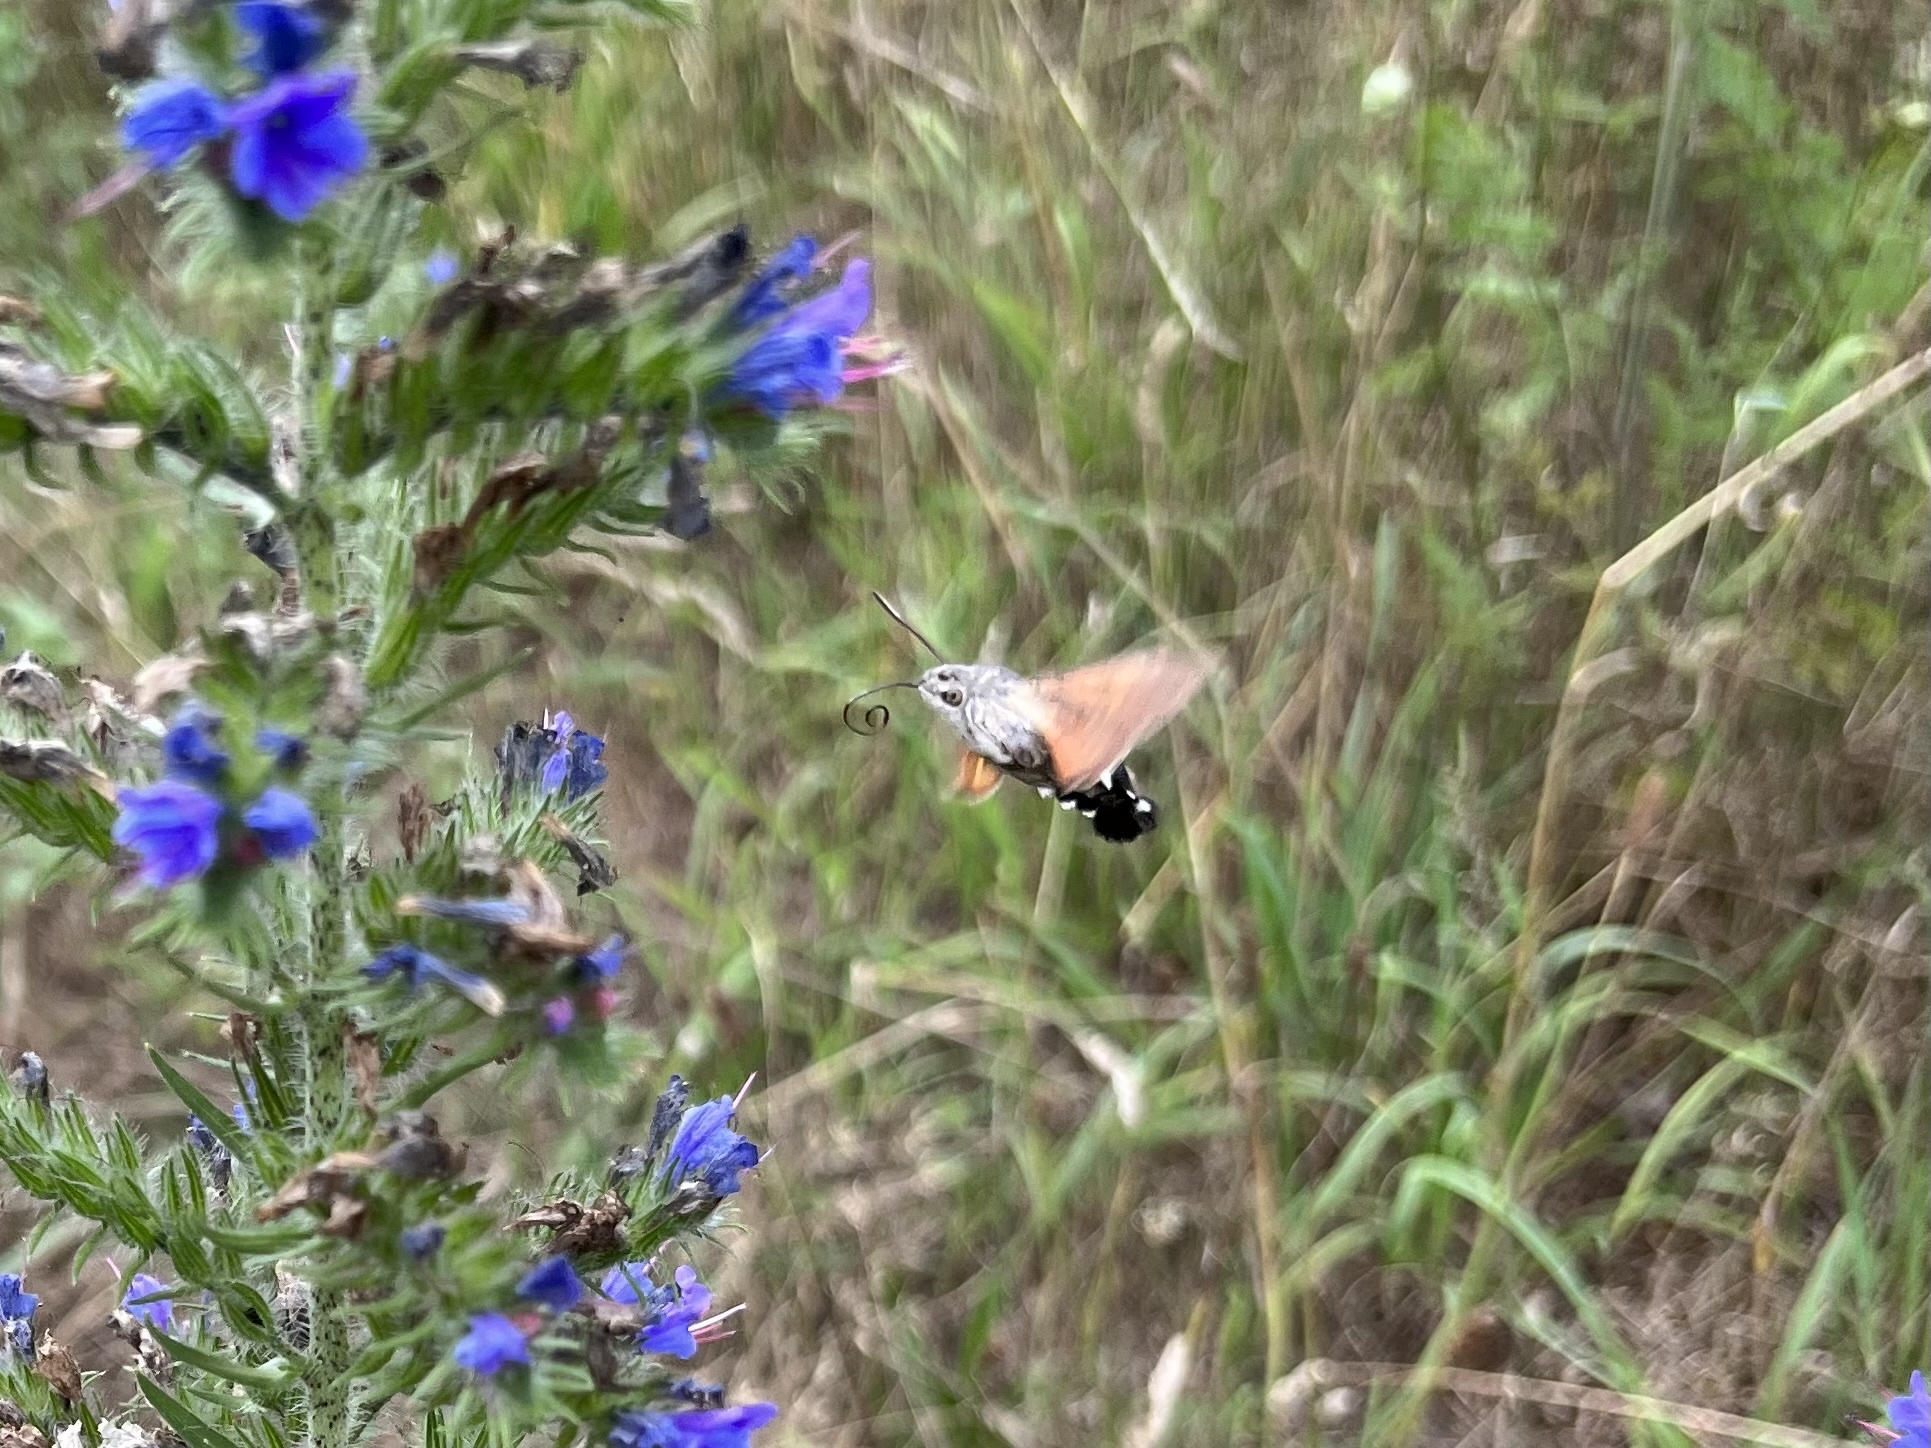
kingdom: Animalia
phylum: Arthropoda
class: Insecta
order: Lepidoptera
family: Sphingidae
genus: Macroglossum
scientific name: Macroglossum stellatarum
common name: Humming-bird hawk-moth
